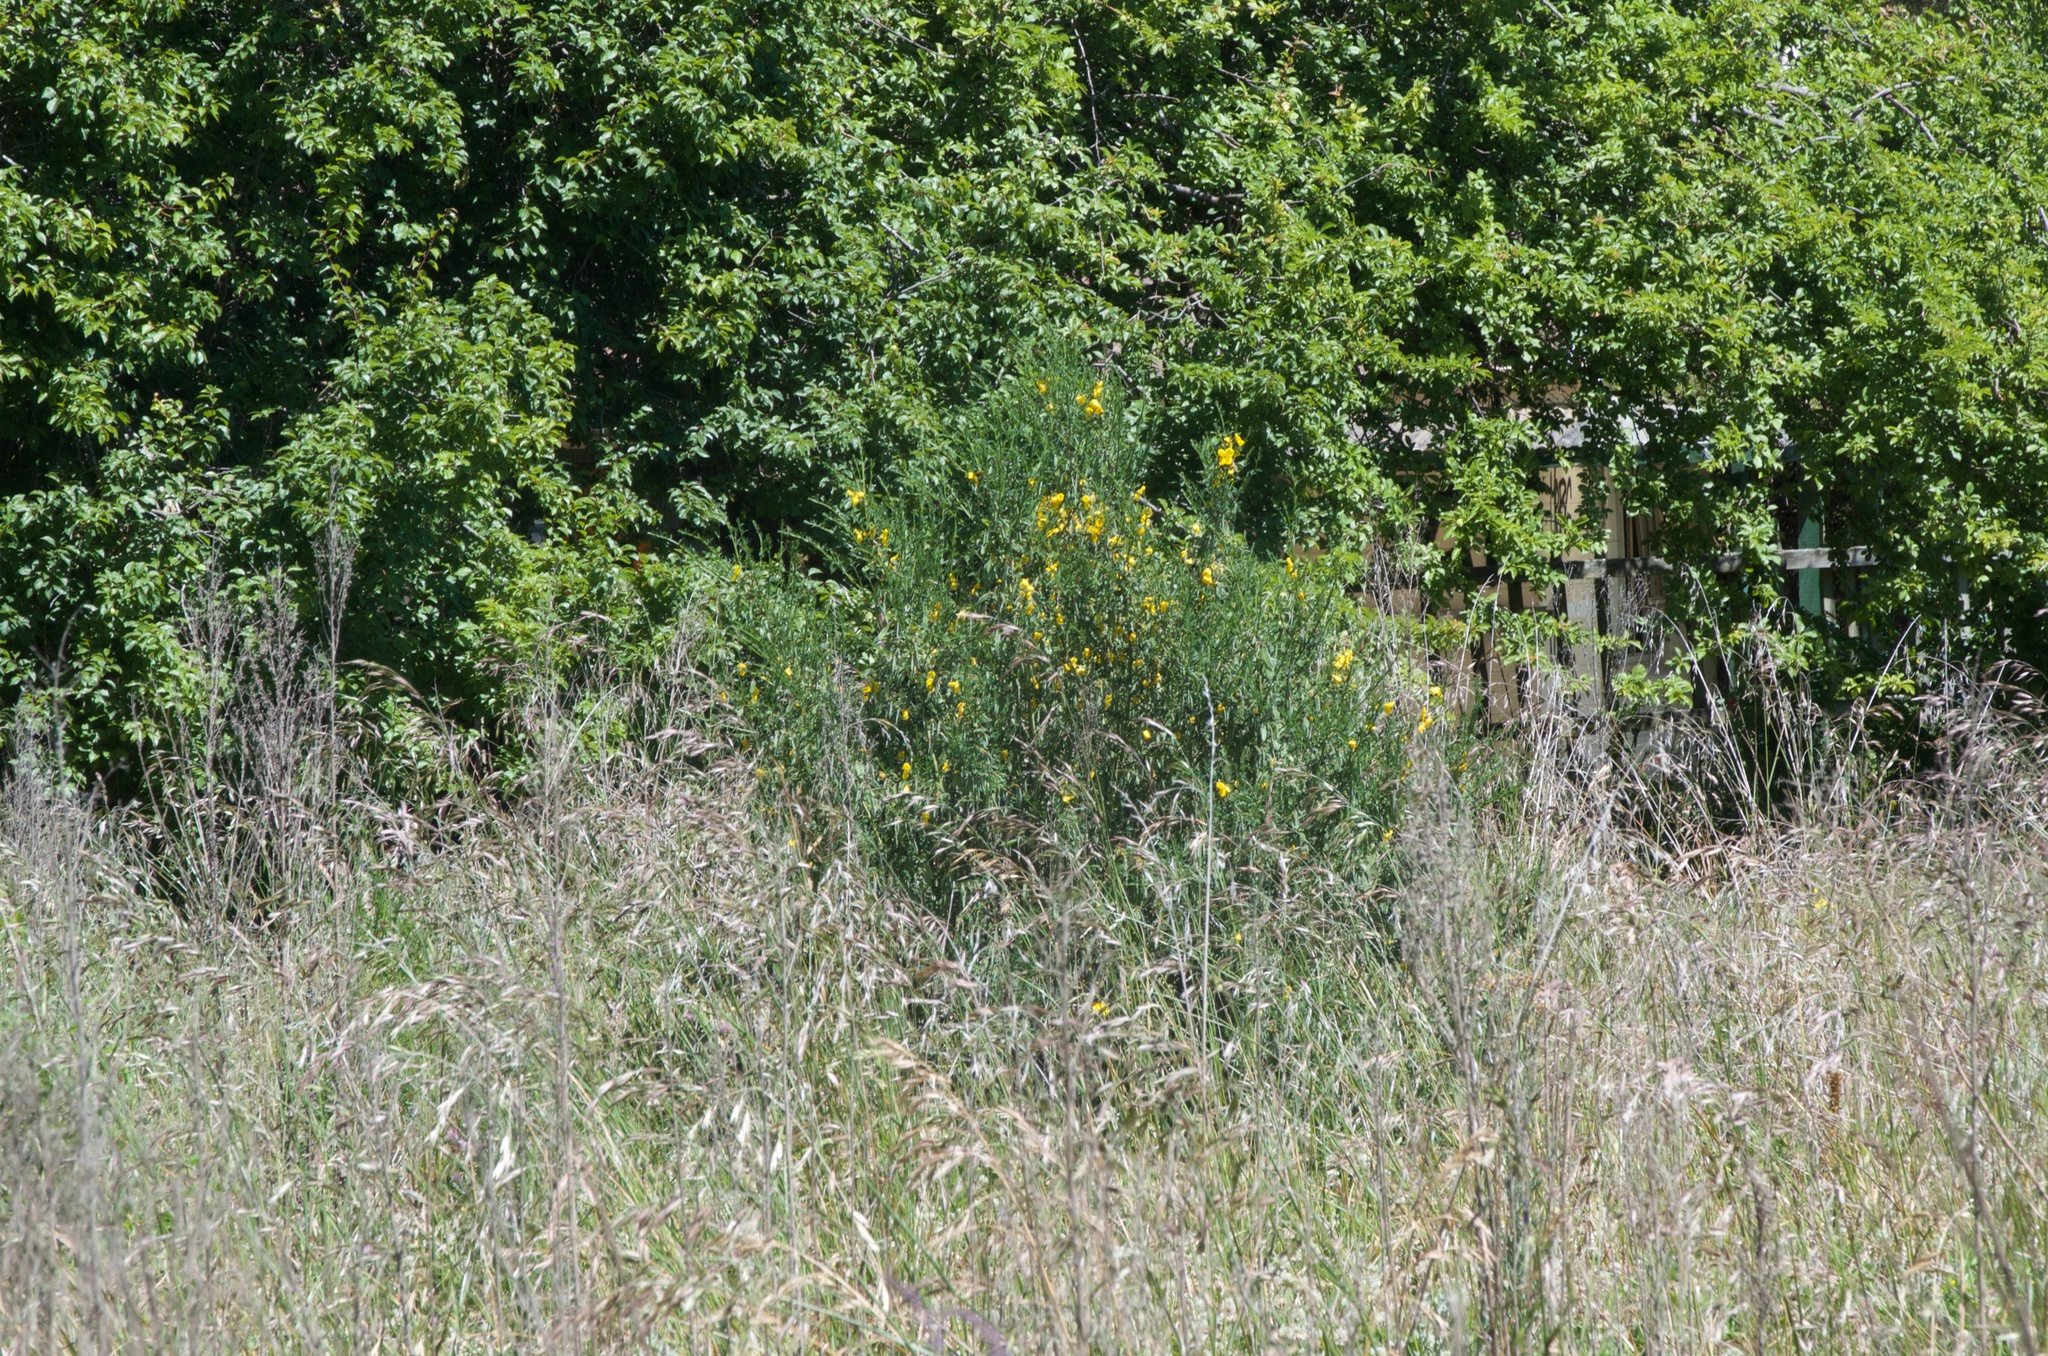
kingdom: Plantae
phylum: Tracheophyta
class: Magnoliopsida
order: Fabales
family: Fabaceae
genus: Cytisus
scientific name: Cytisus scoparius
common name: Scotch broom
